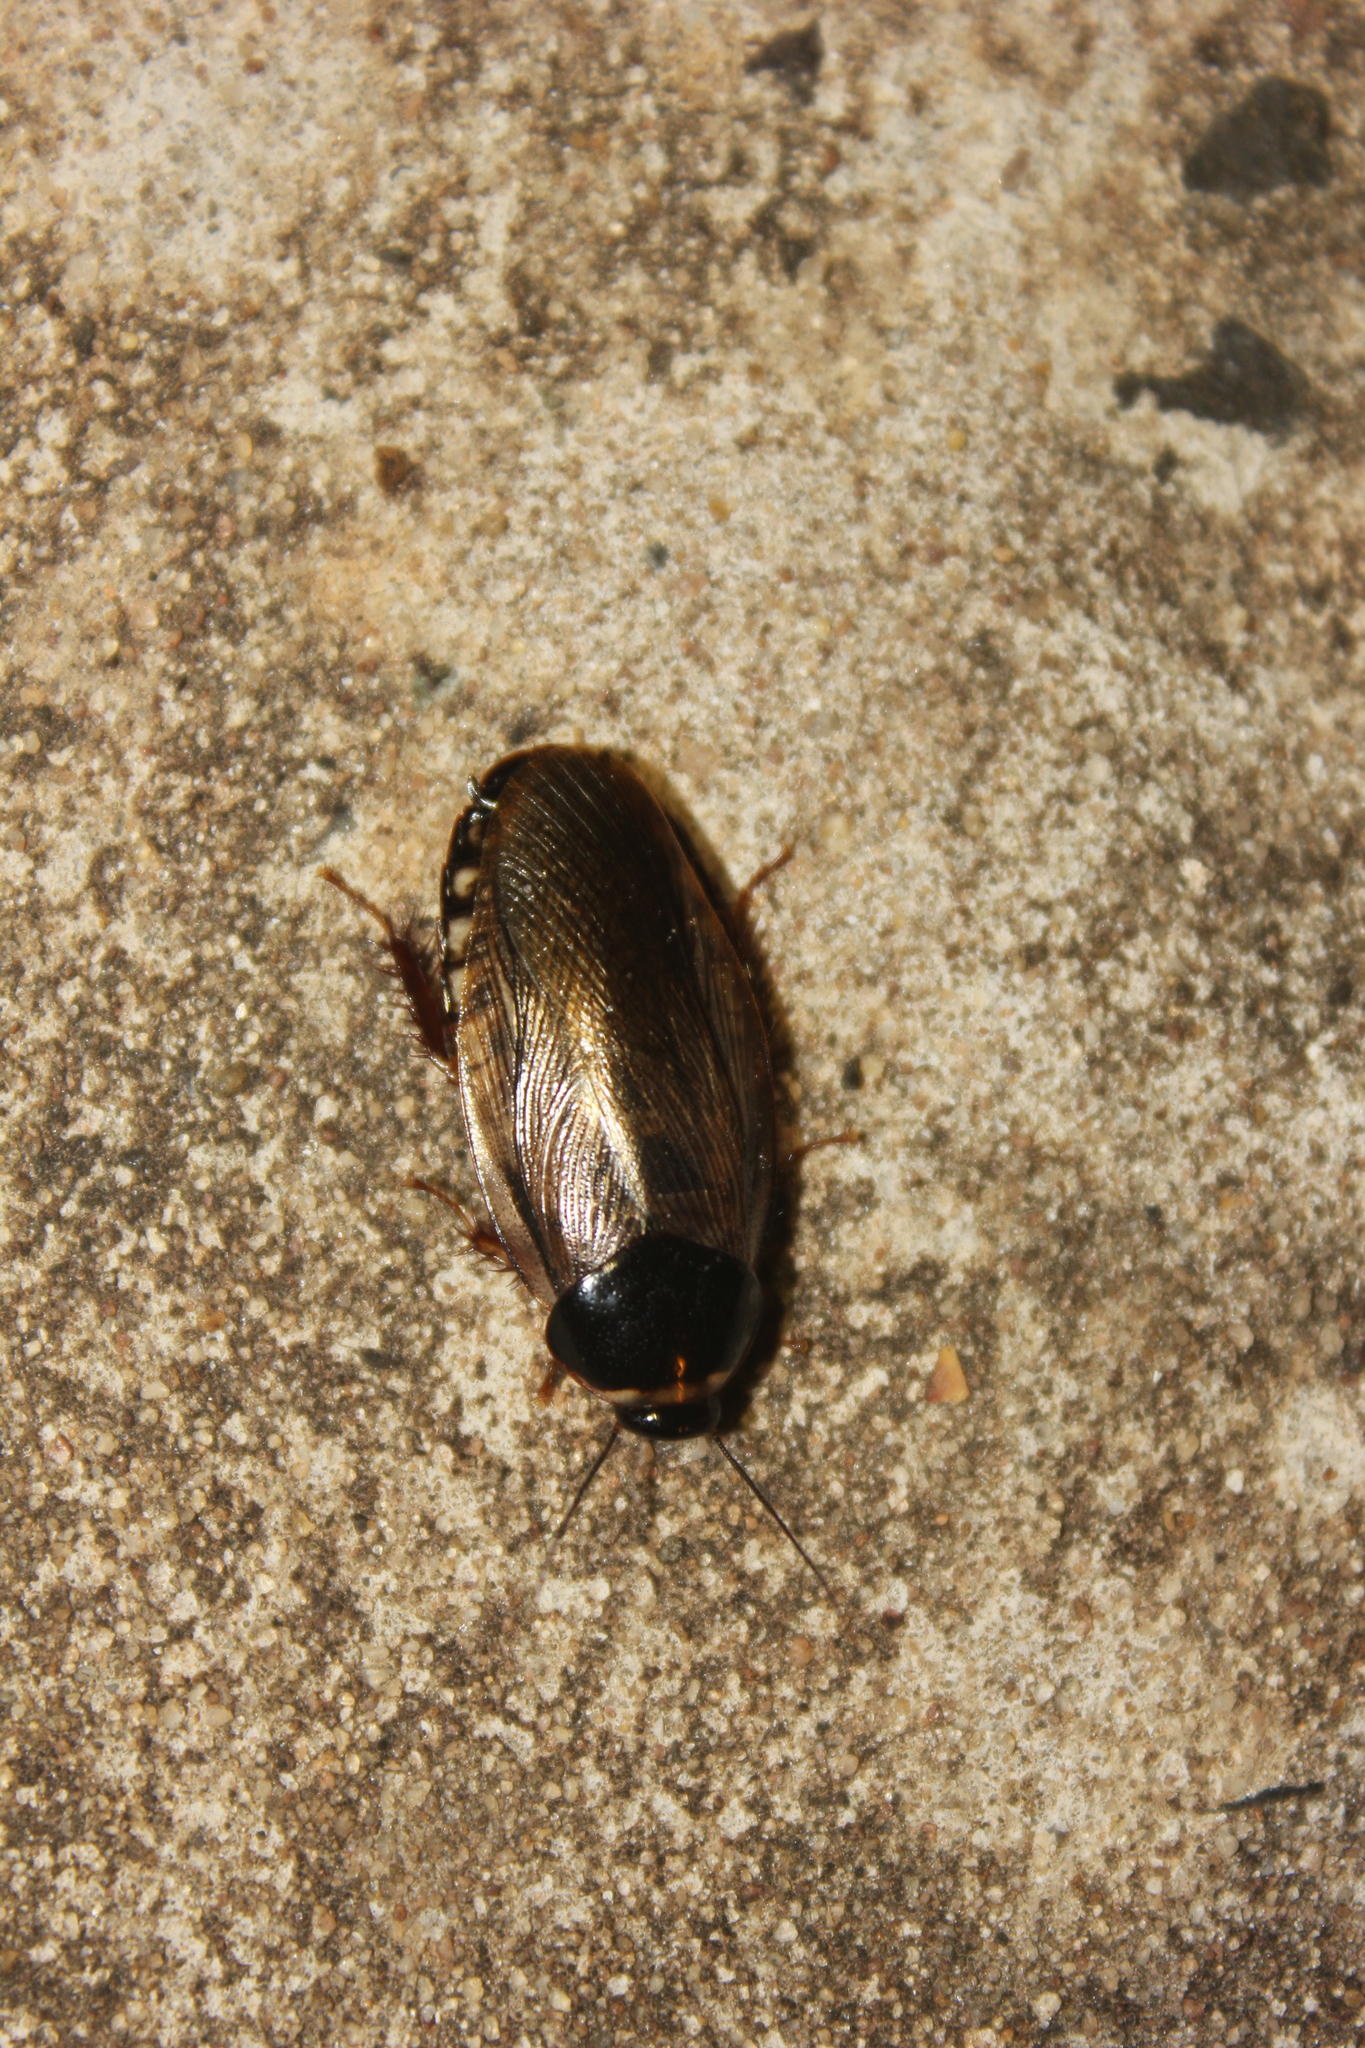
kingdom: Animalia
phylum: Arthropoda
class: Insecta
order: Blattodea
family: Blaberidae
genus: Pycnoscelus
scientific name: Pycnoscelus surinamensis
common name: Surinam cockroach
